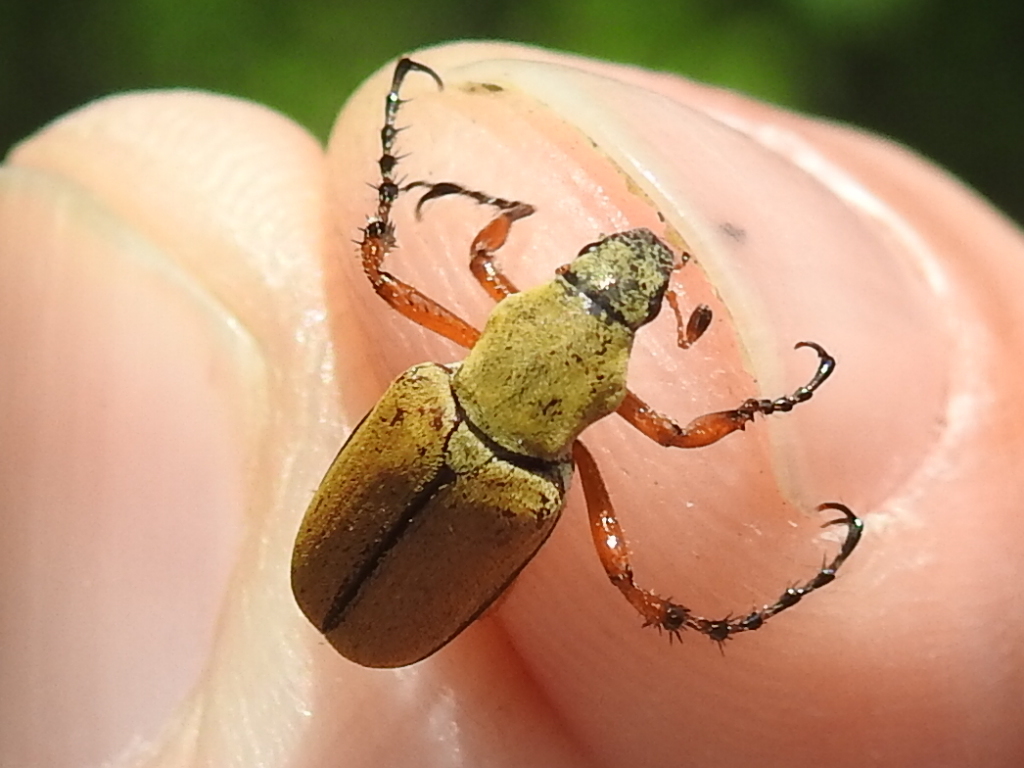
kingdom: Animalia
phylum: Arthropoda
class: Insecta
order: Coleoptera
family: Scarabaeidae
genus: Macrodactylus
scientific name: Macrodactylus subspinosus
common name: American rose chafer
